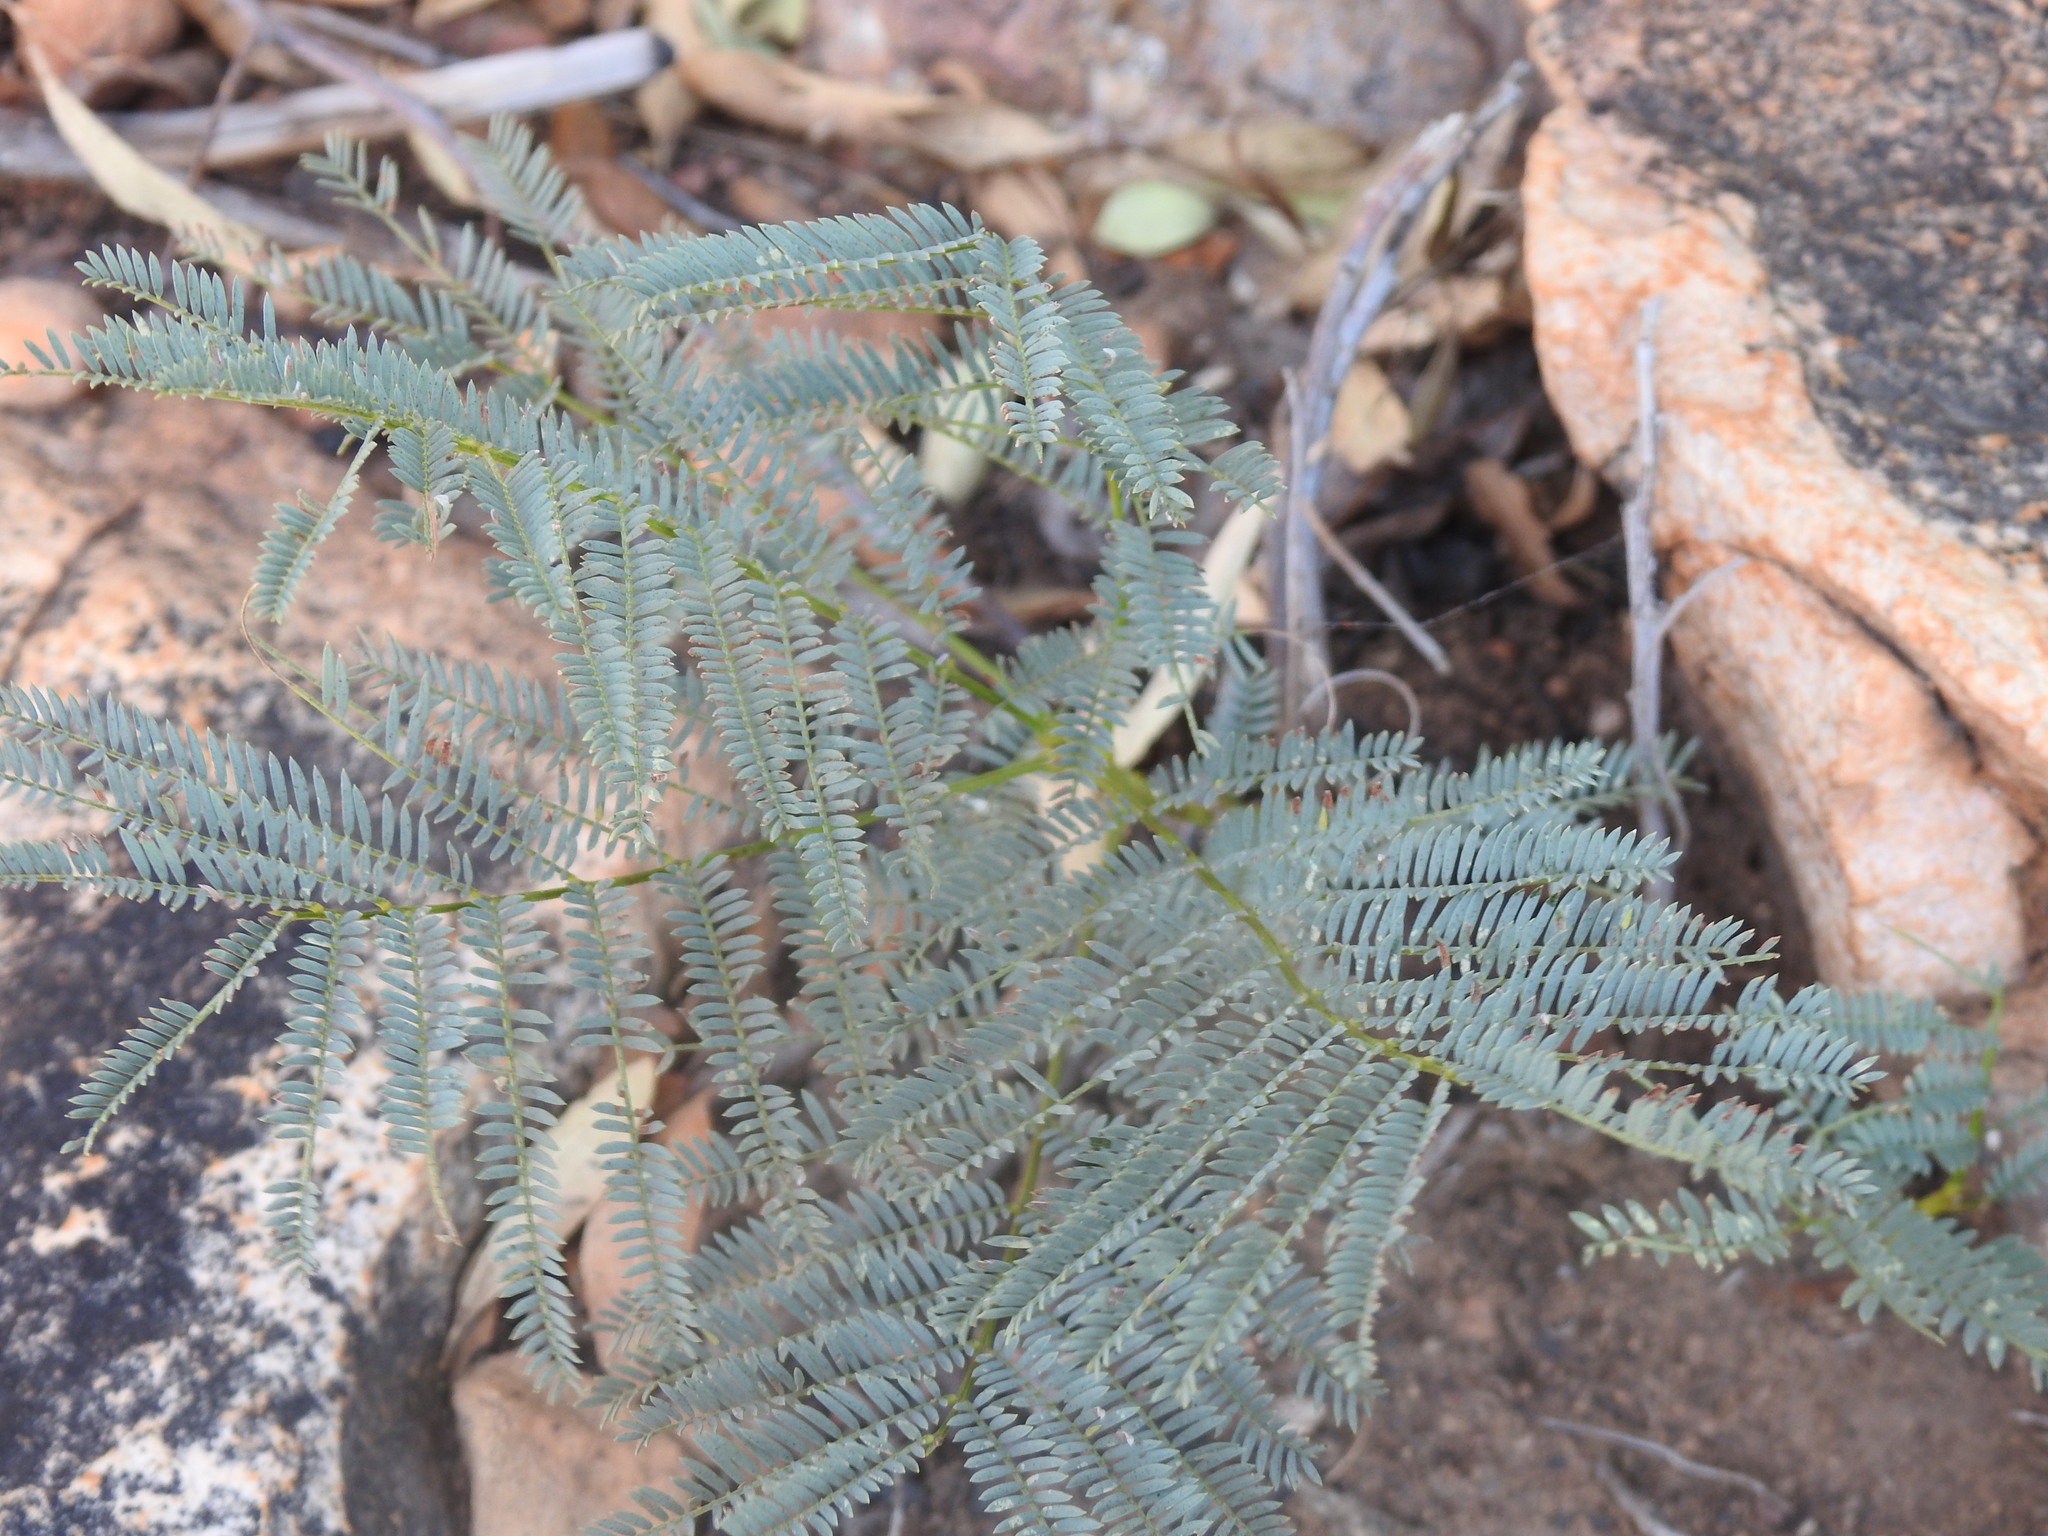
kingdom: Plantae
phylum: Tracheophyta
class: Magnoliopsida
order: Fabales
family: Fabaceae
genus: Elephantorrhiza
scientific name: Elephantorrhiza elephantina
